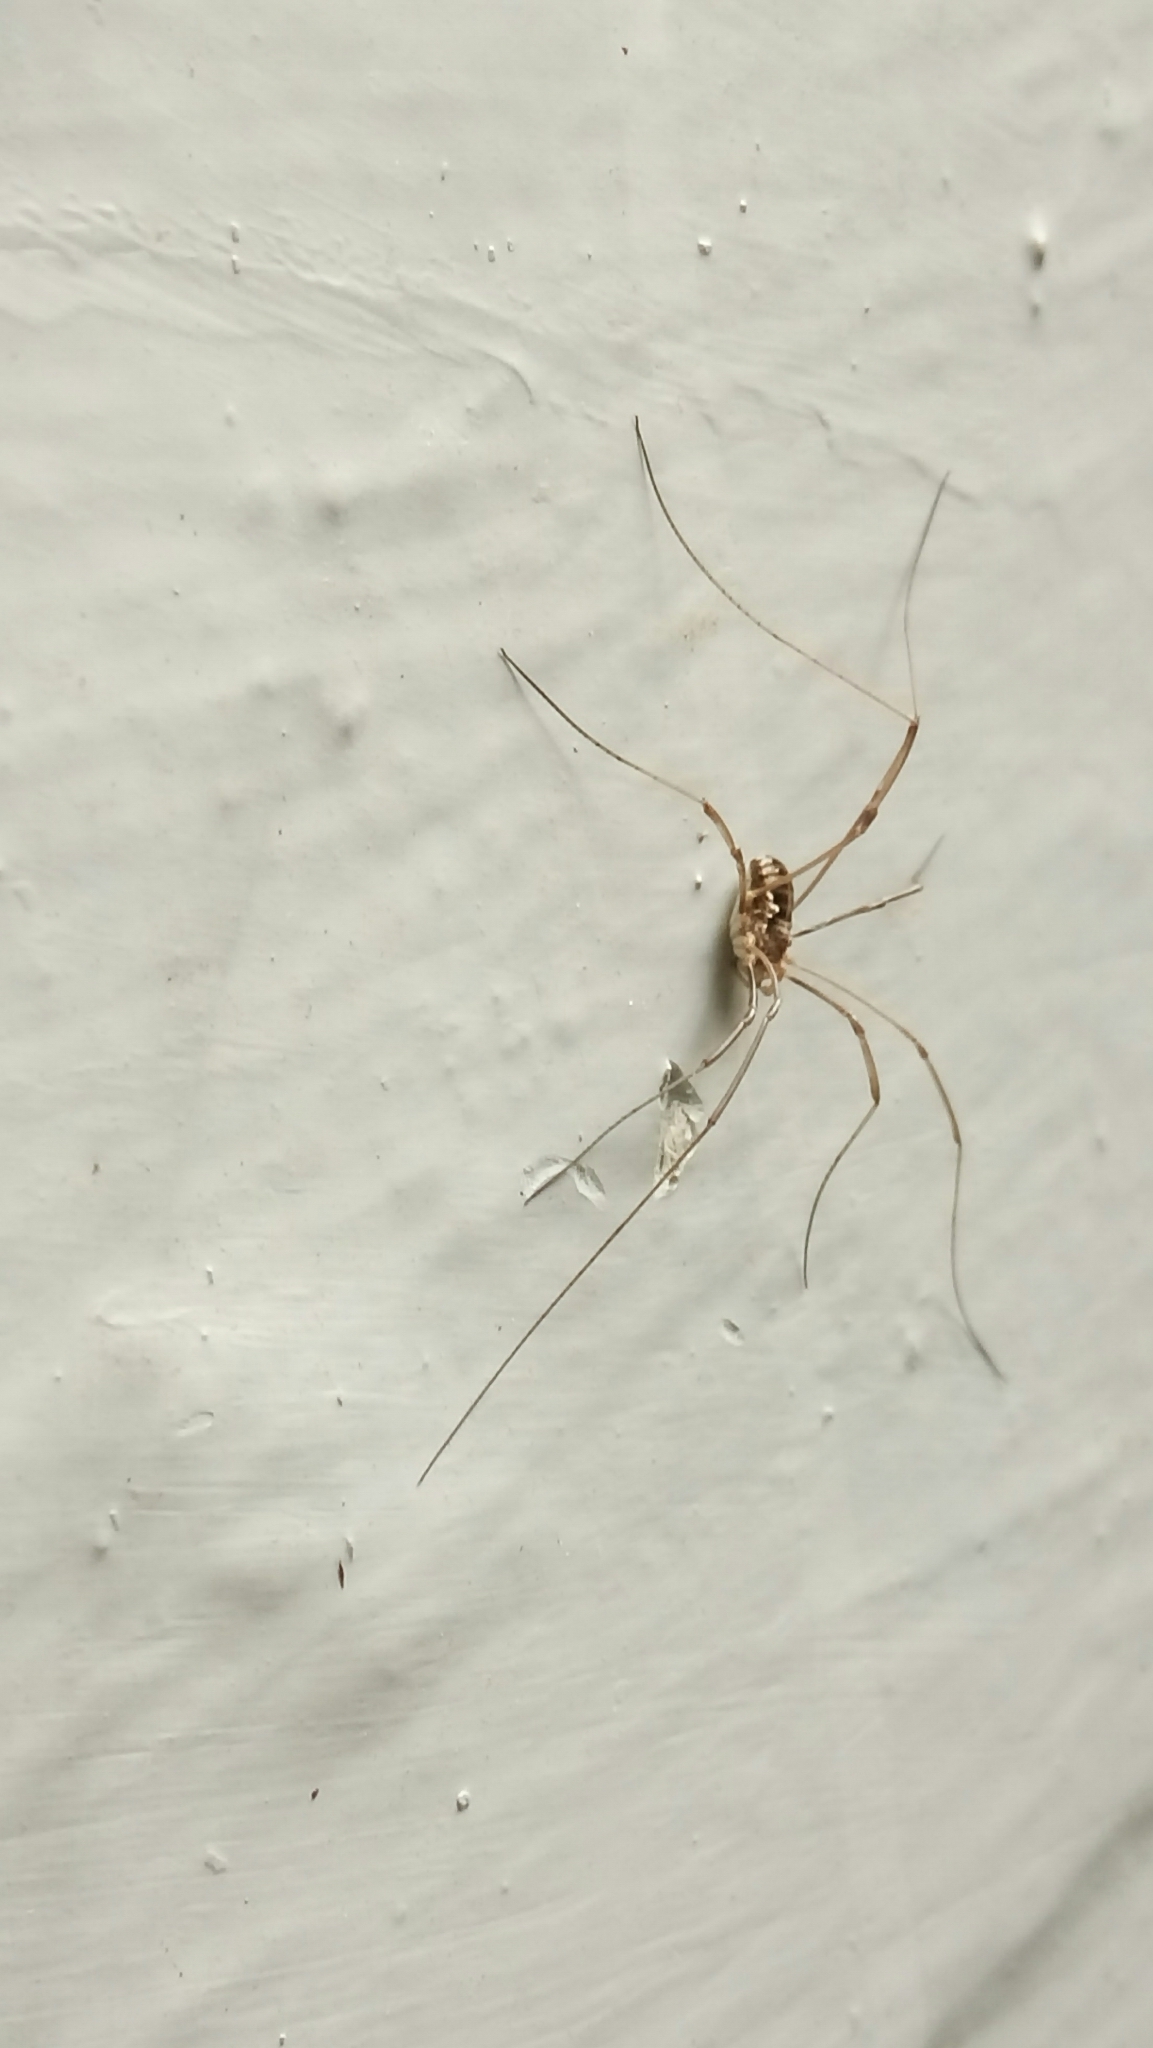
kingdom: Animalia
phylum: Arthropoda
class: Arachnida
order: Opiliones
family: Phalangiidae
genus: Phalangium
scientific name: Phalangium opilio
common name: Daddy longleg
